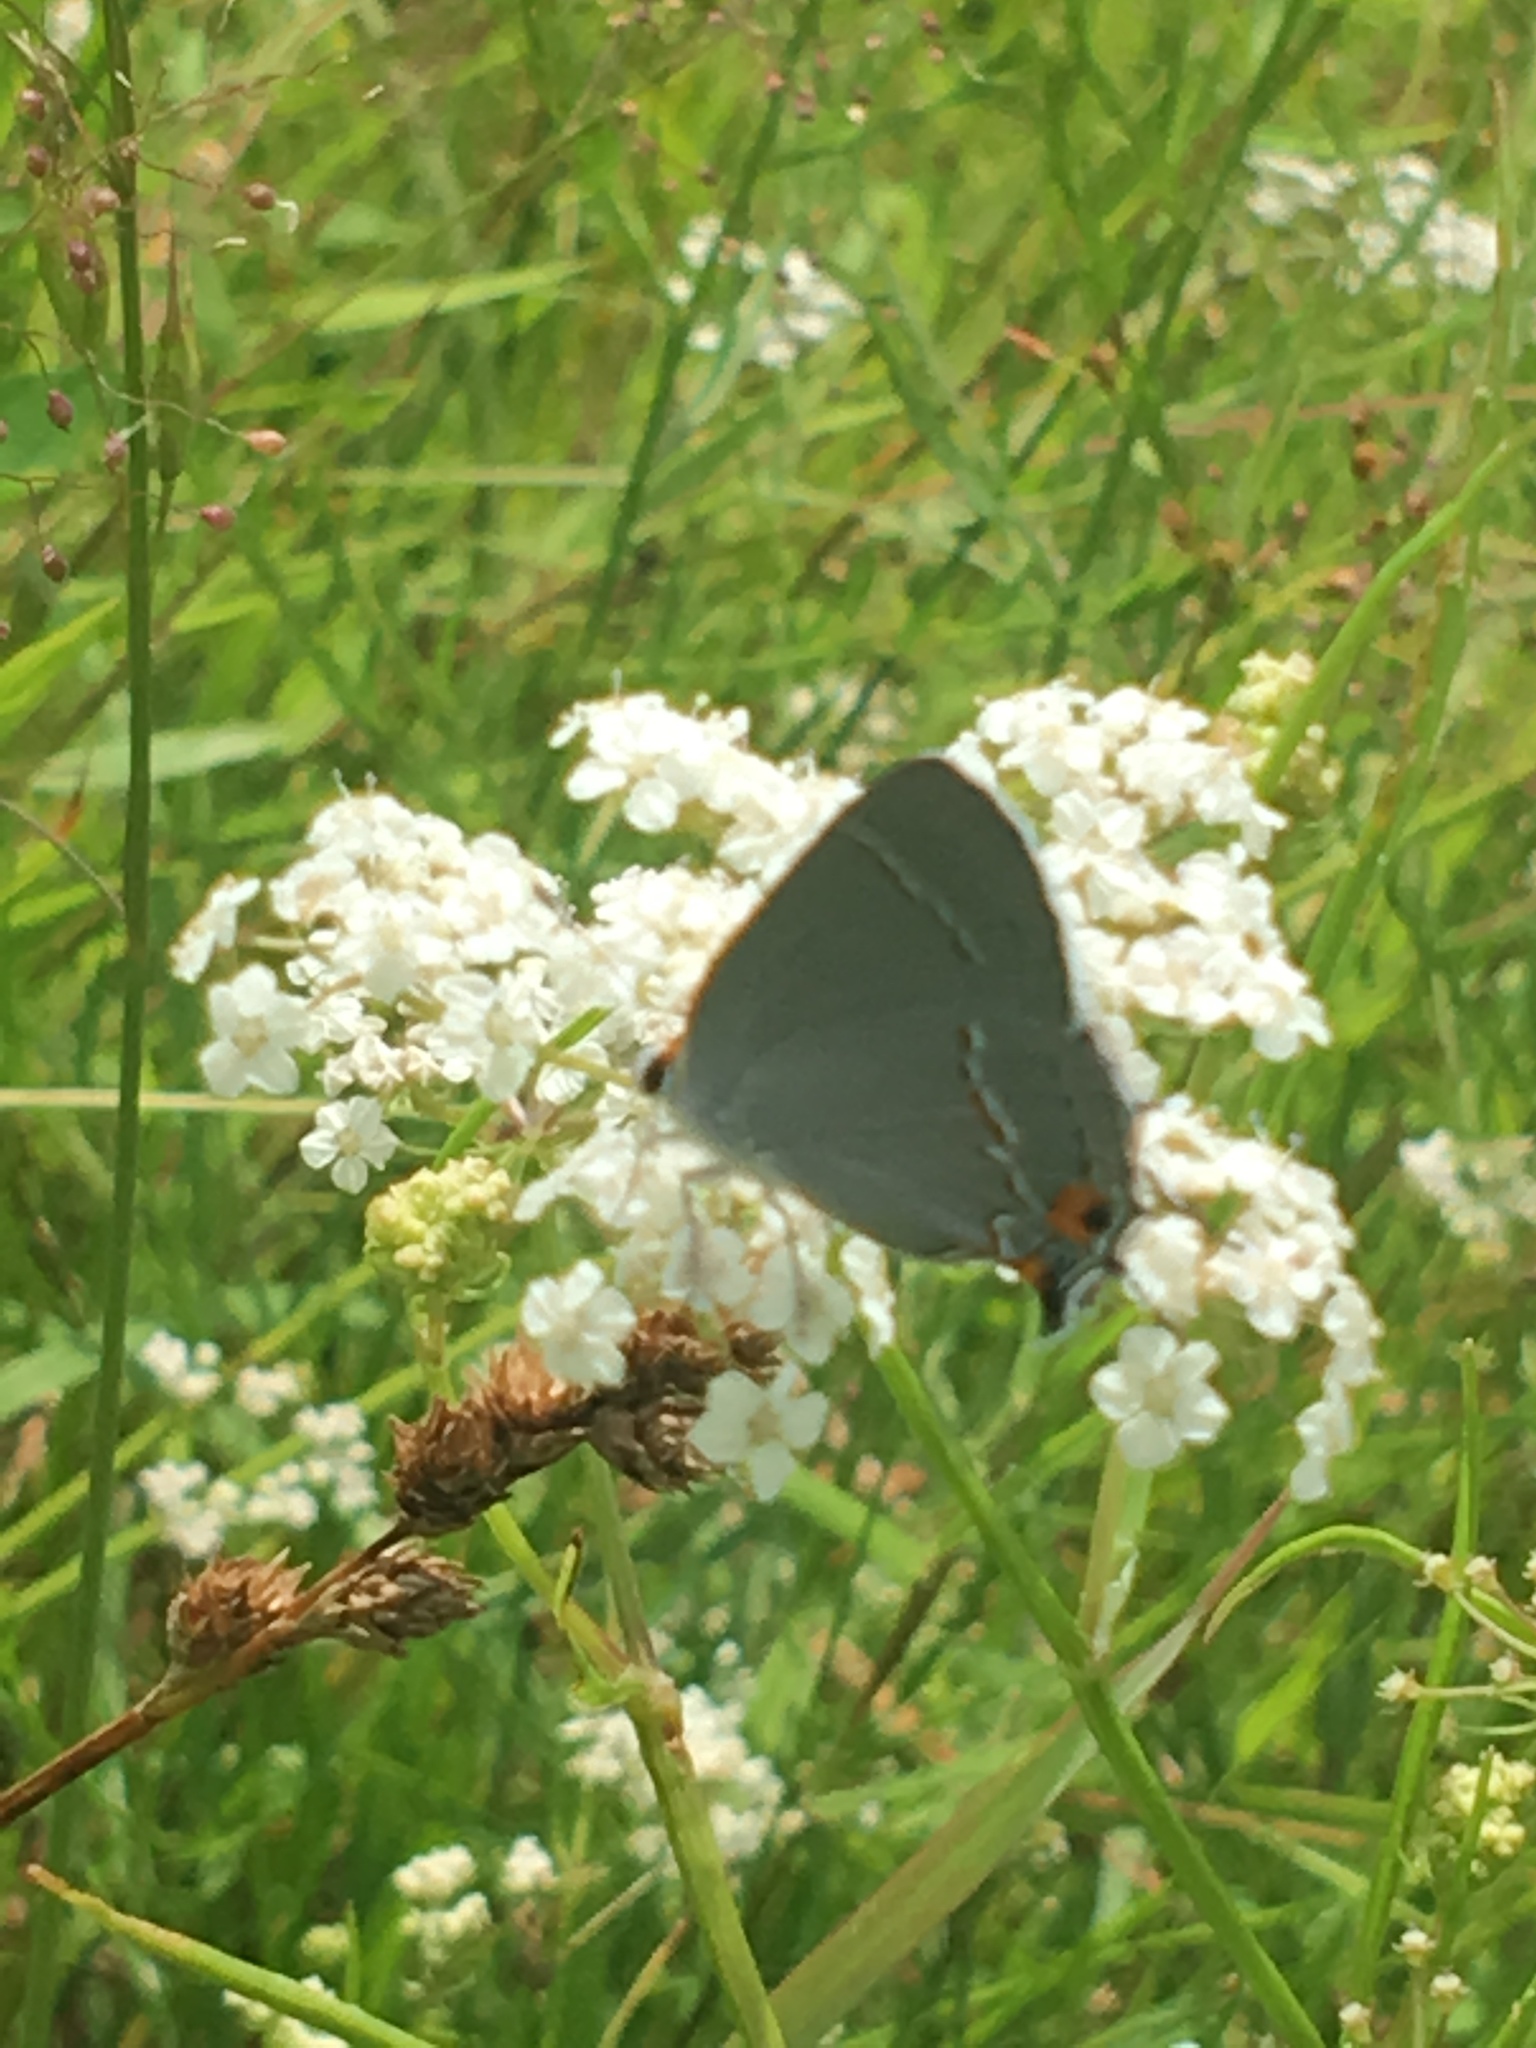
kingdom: Animalia
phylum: Arthropoda
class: Insecta
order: Lepidoptera
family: Lycaenidae
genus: Strymon
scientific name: Strymon melinus
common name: Gray hairstreak
